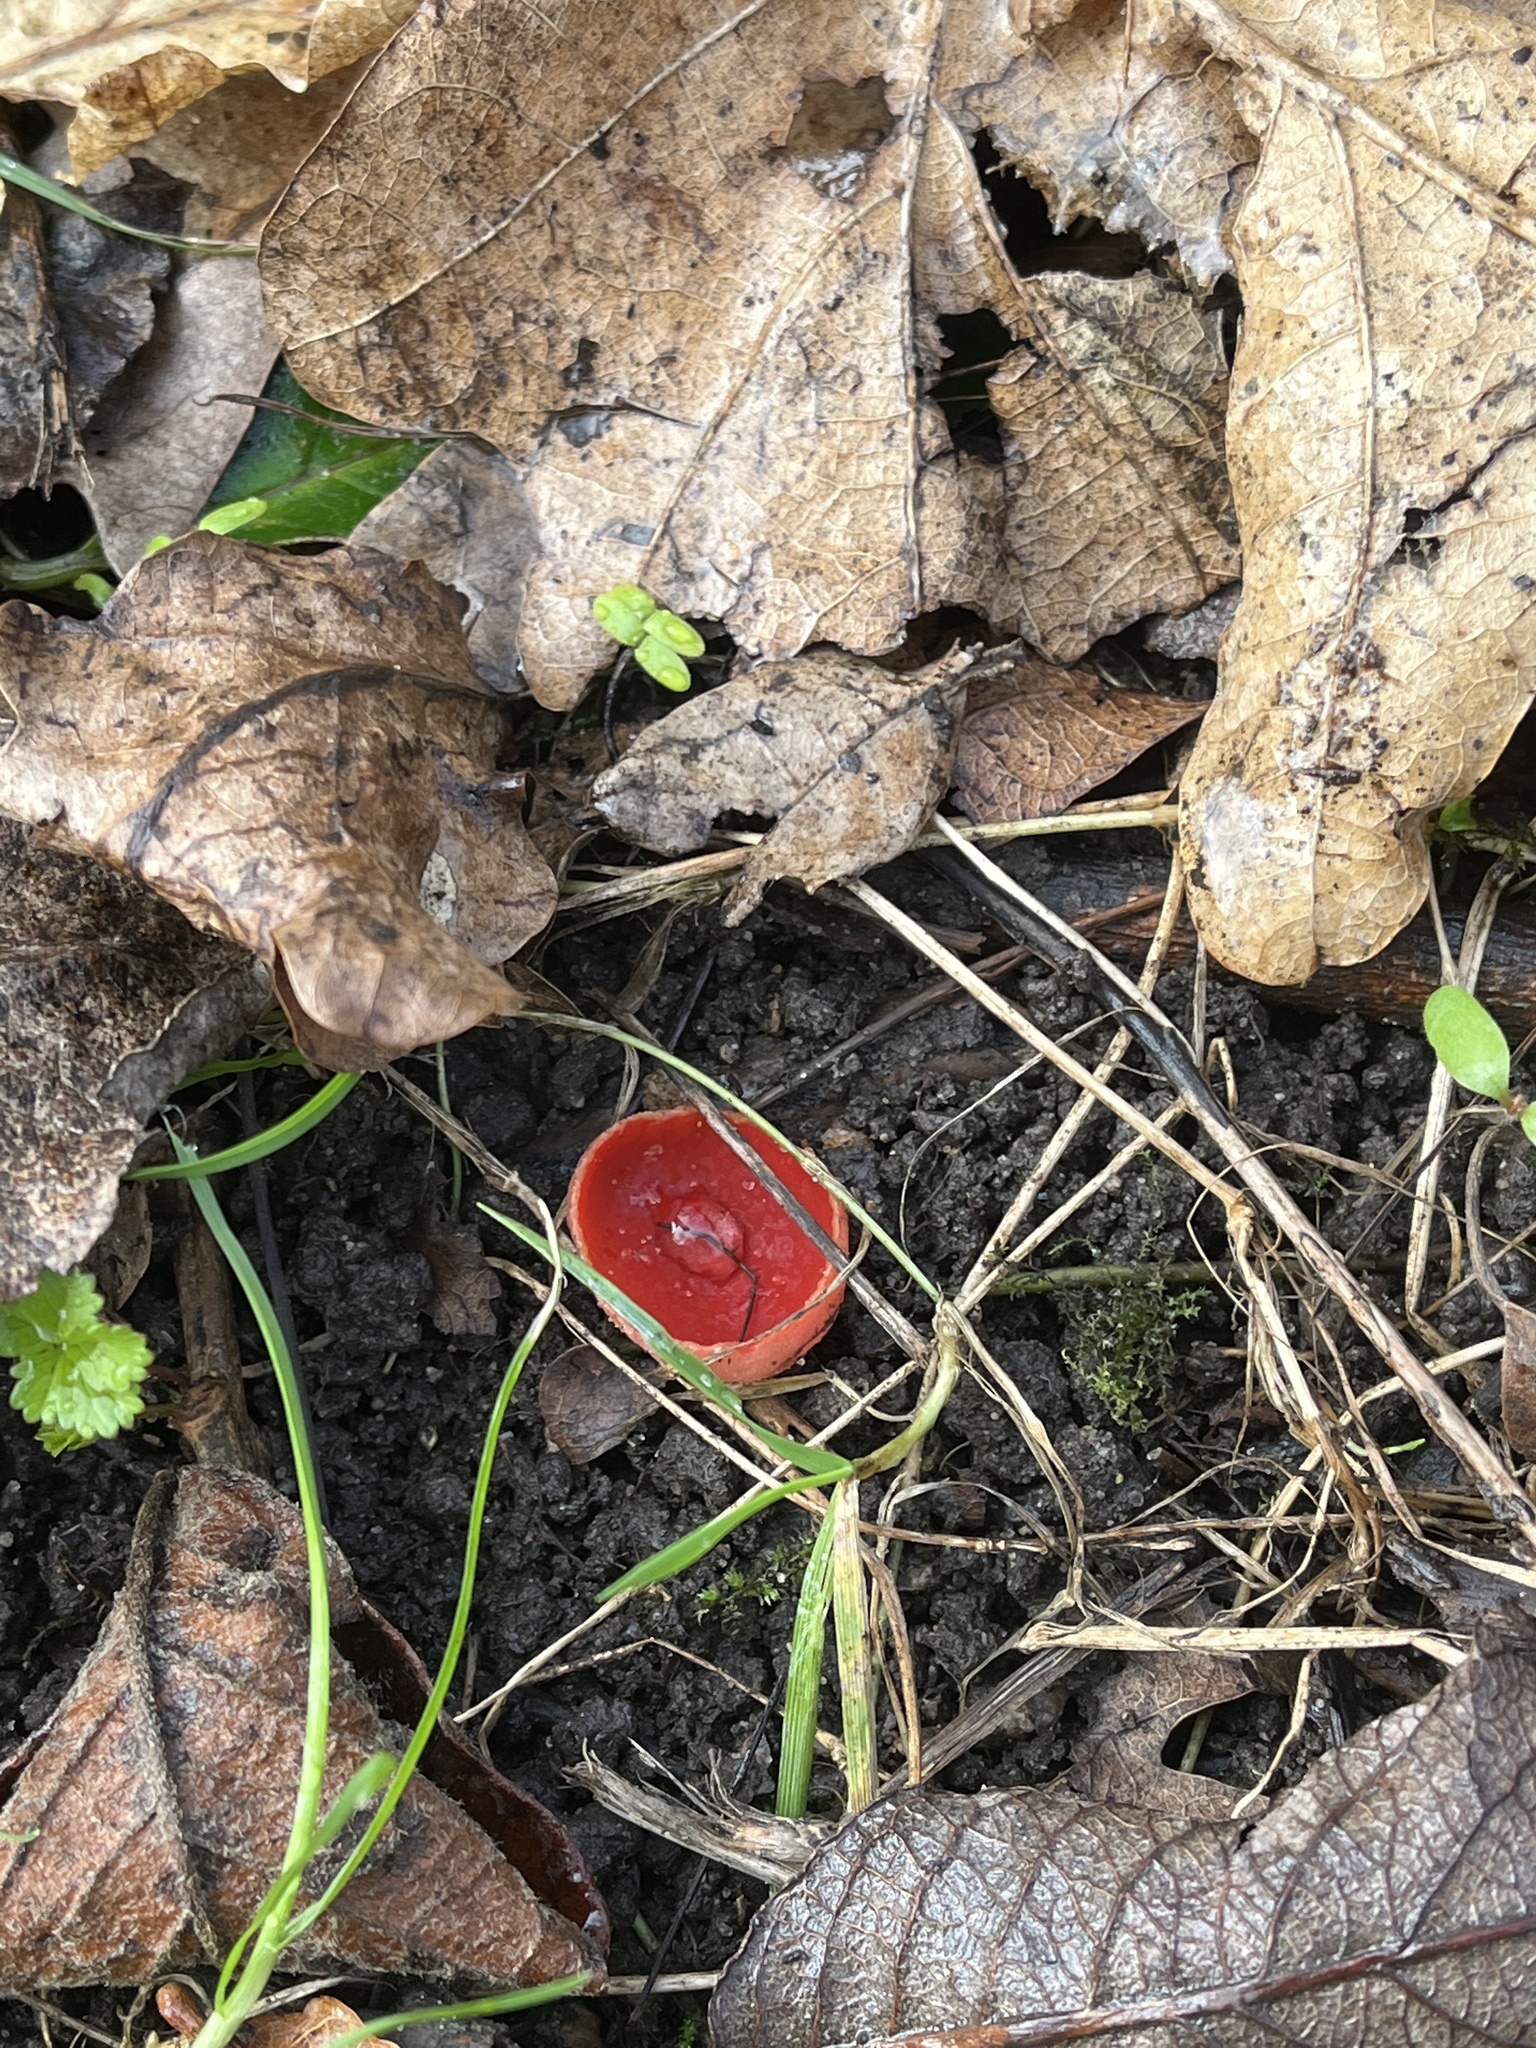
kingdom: Fungi
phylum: Ascomycota
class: Pezizomycetes
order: Pezizales
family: Sarcoscyphaceae
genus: Sarcoscypha
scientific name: Sarcoscypha
